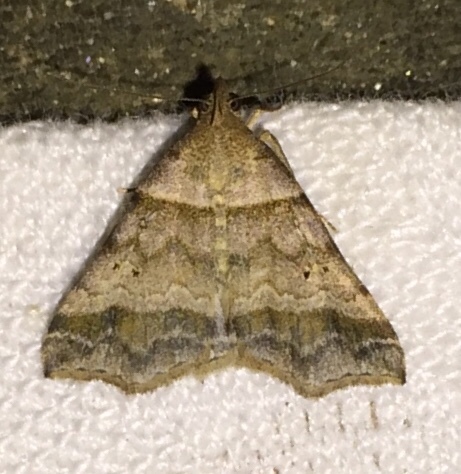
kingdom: Animalia
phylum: Arthropoda
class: Insecta
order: Lepidoptera
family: Erebidae
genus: Phaeolita
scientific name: Phaeolita pyramusalis
